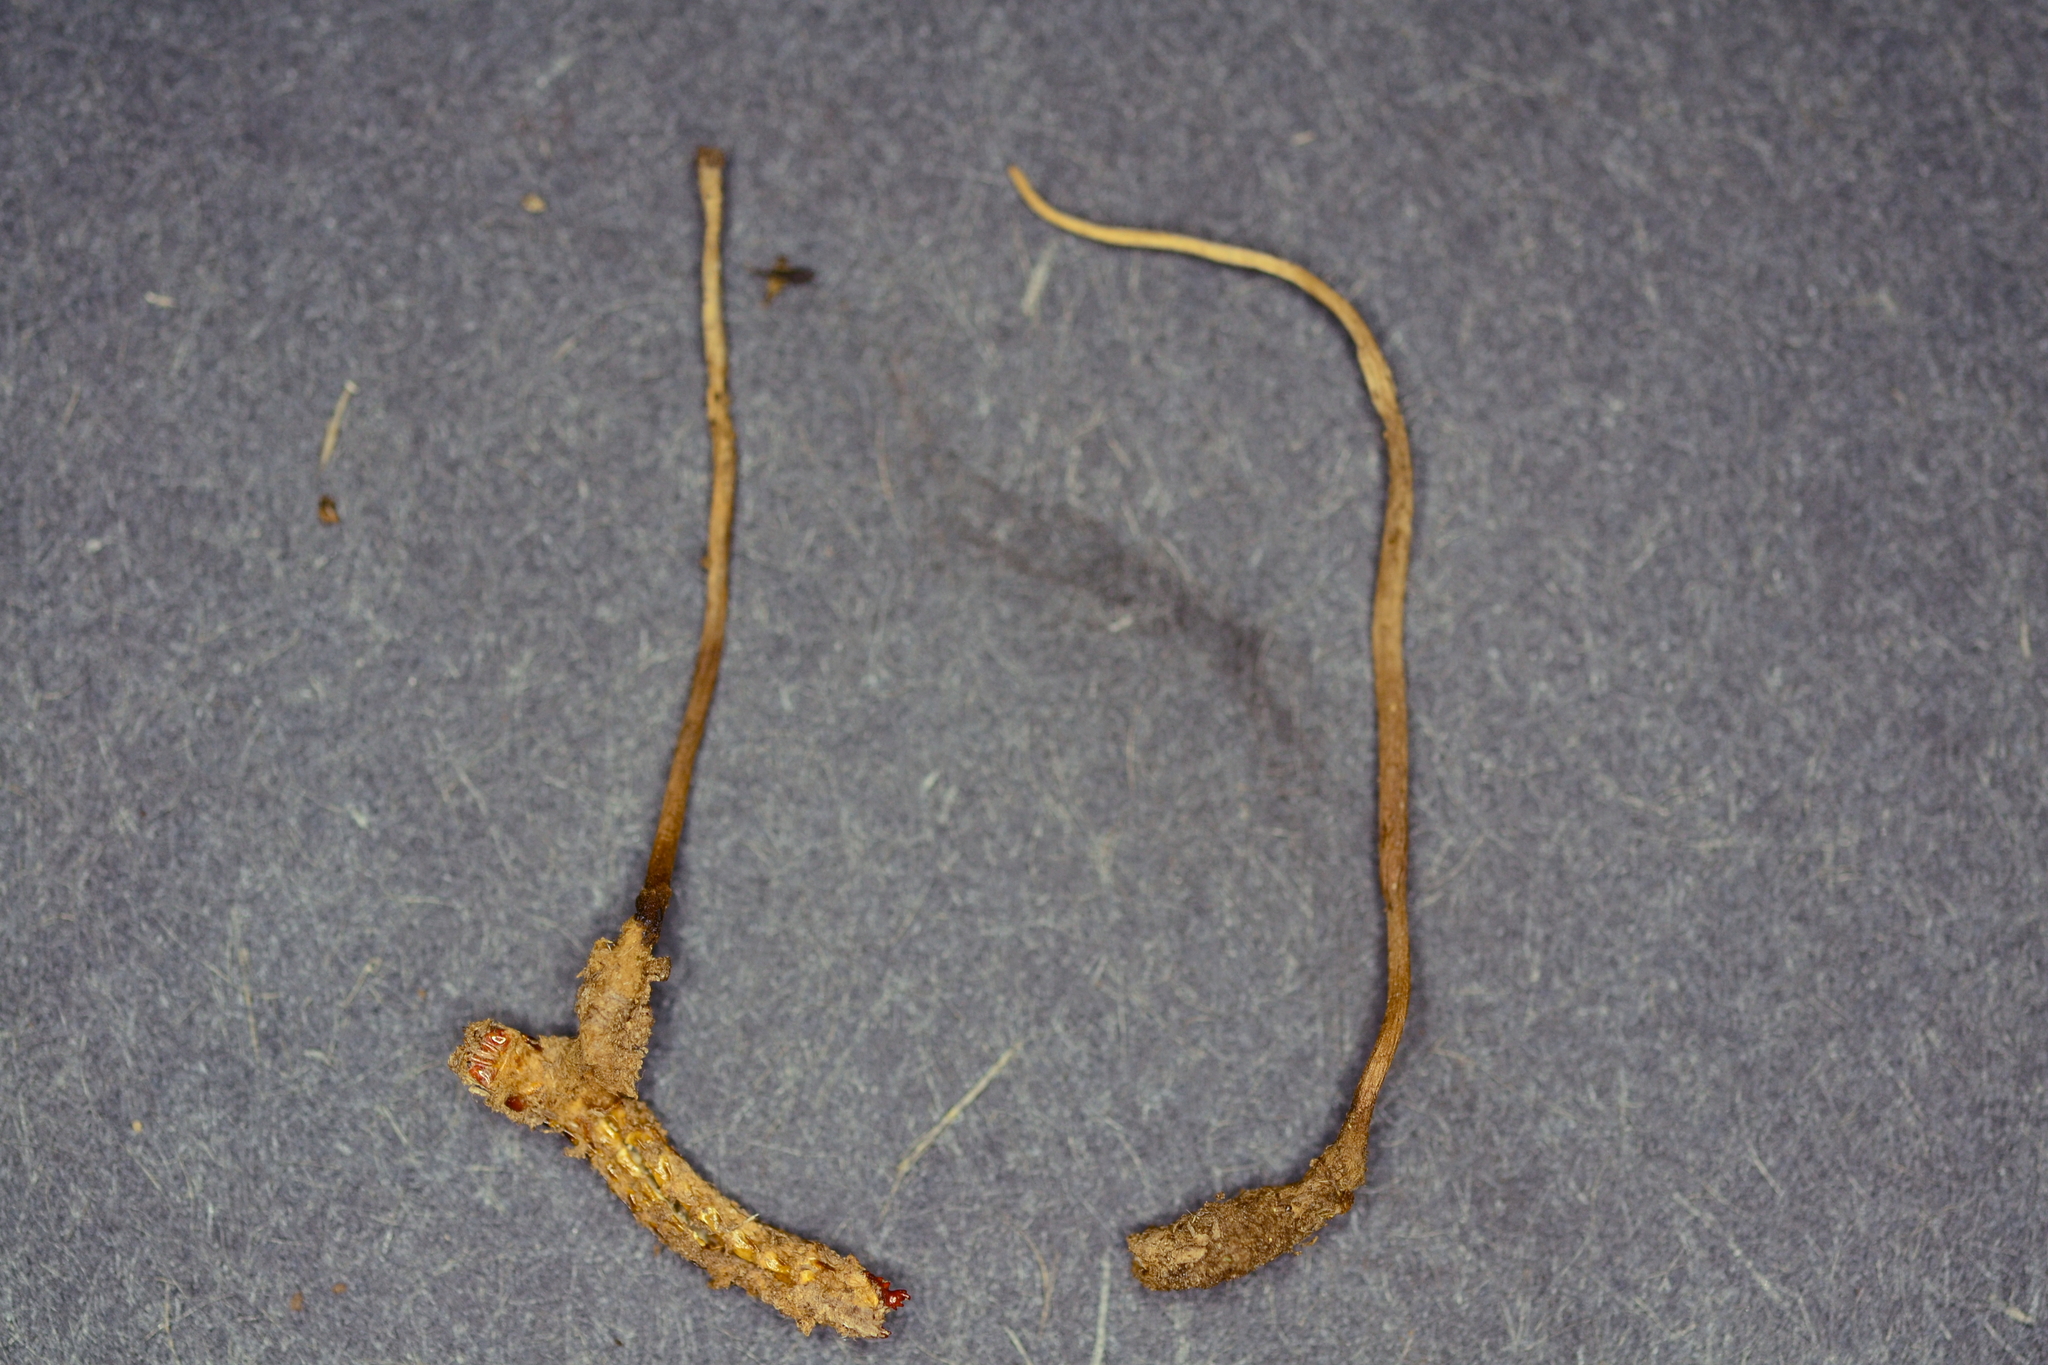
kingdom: Fungi
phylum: Ascomycota
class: Sordariomycetes
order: Hypocreales
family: Ophiocordycipitaceae
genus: Ophiocordyceps
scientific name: Ophiocordyceps stylophora
